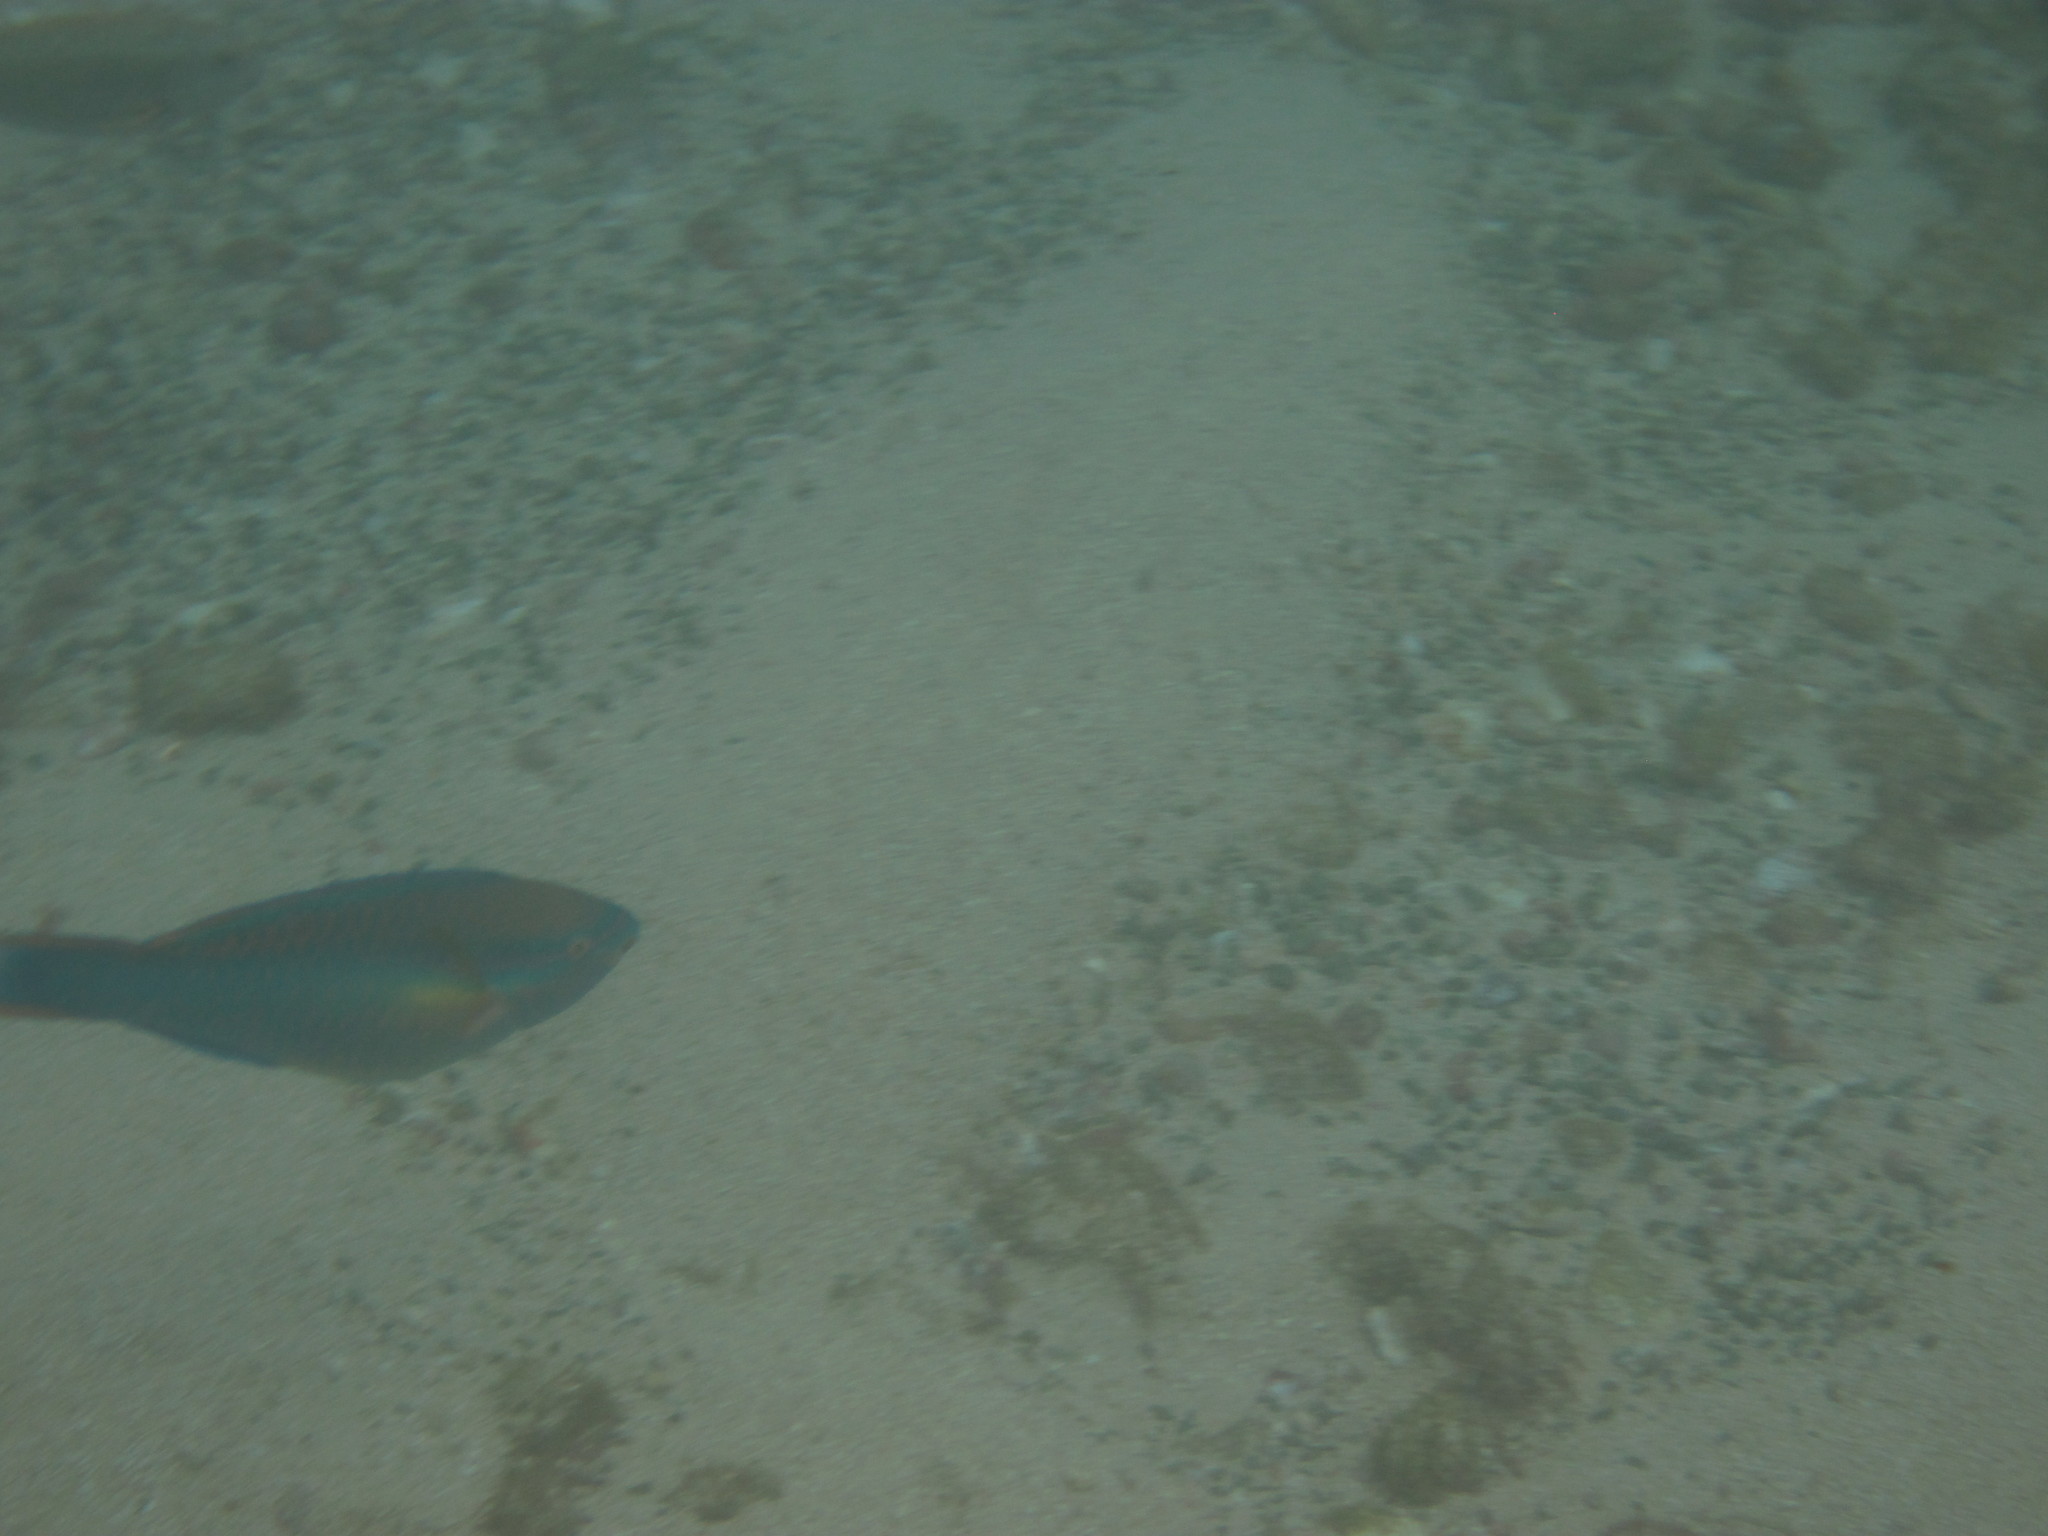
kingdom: Animalia
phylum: Chordata
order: Perciformes
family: Scaridae
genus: Scarus
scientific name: Scarus taeniopterus
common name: Princess parrotfish
